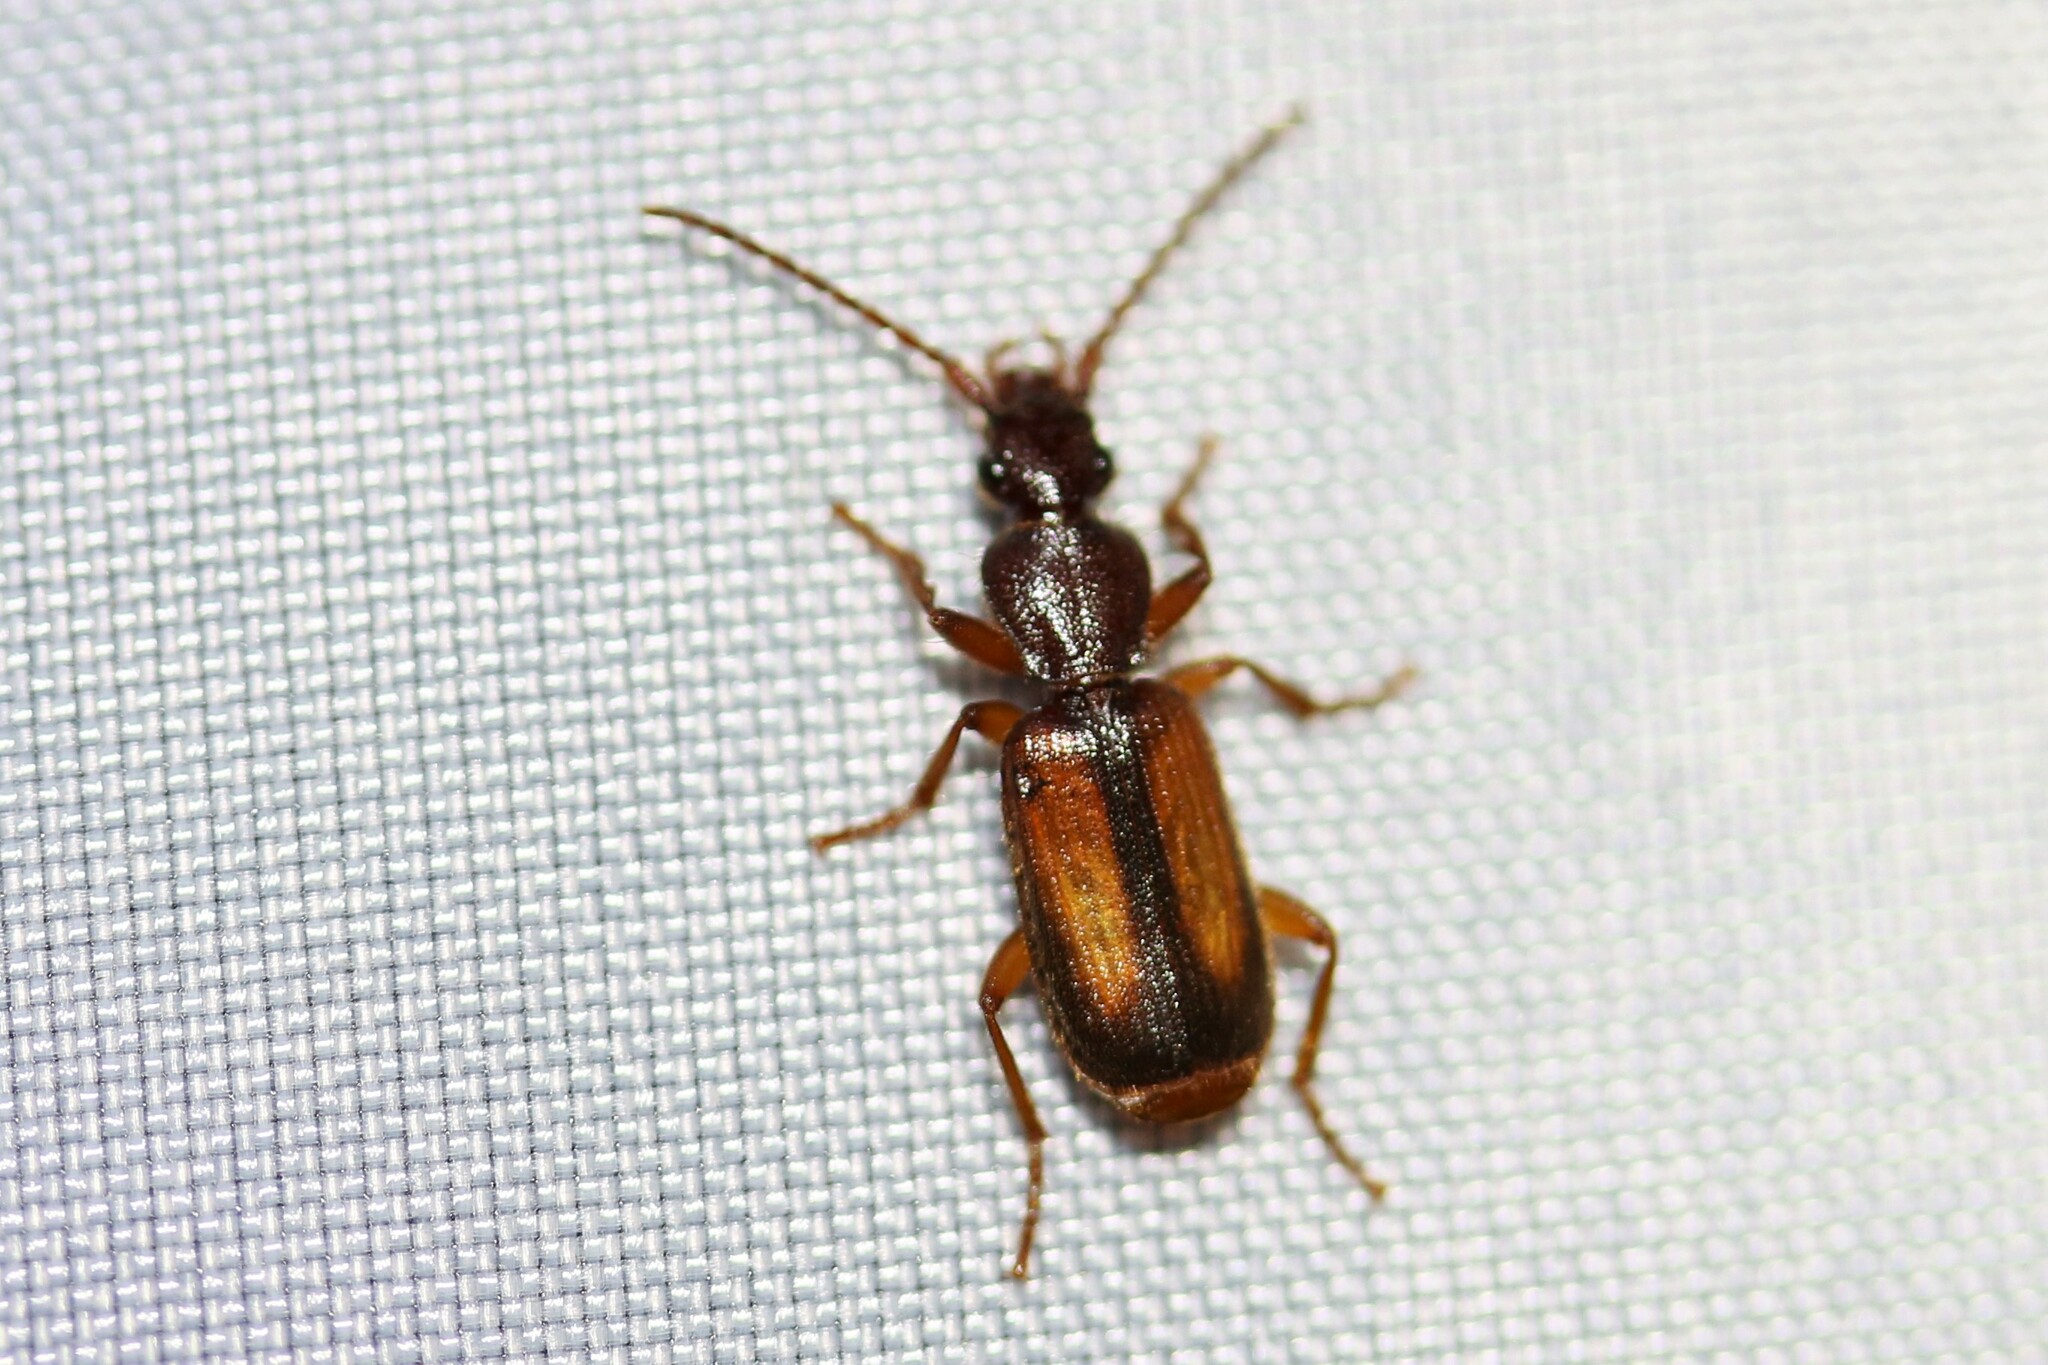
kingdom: Animalia
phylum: Arthropoda
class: Insecta
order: Coleoptera
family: Carabidae
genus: Polistichus
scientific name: Polistichus connexus
